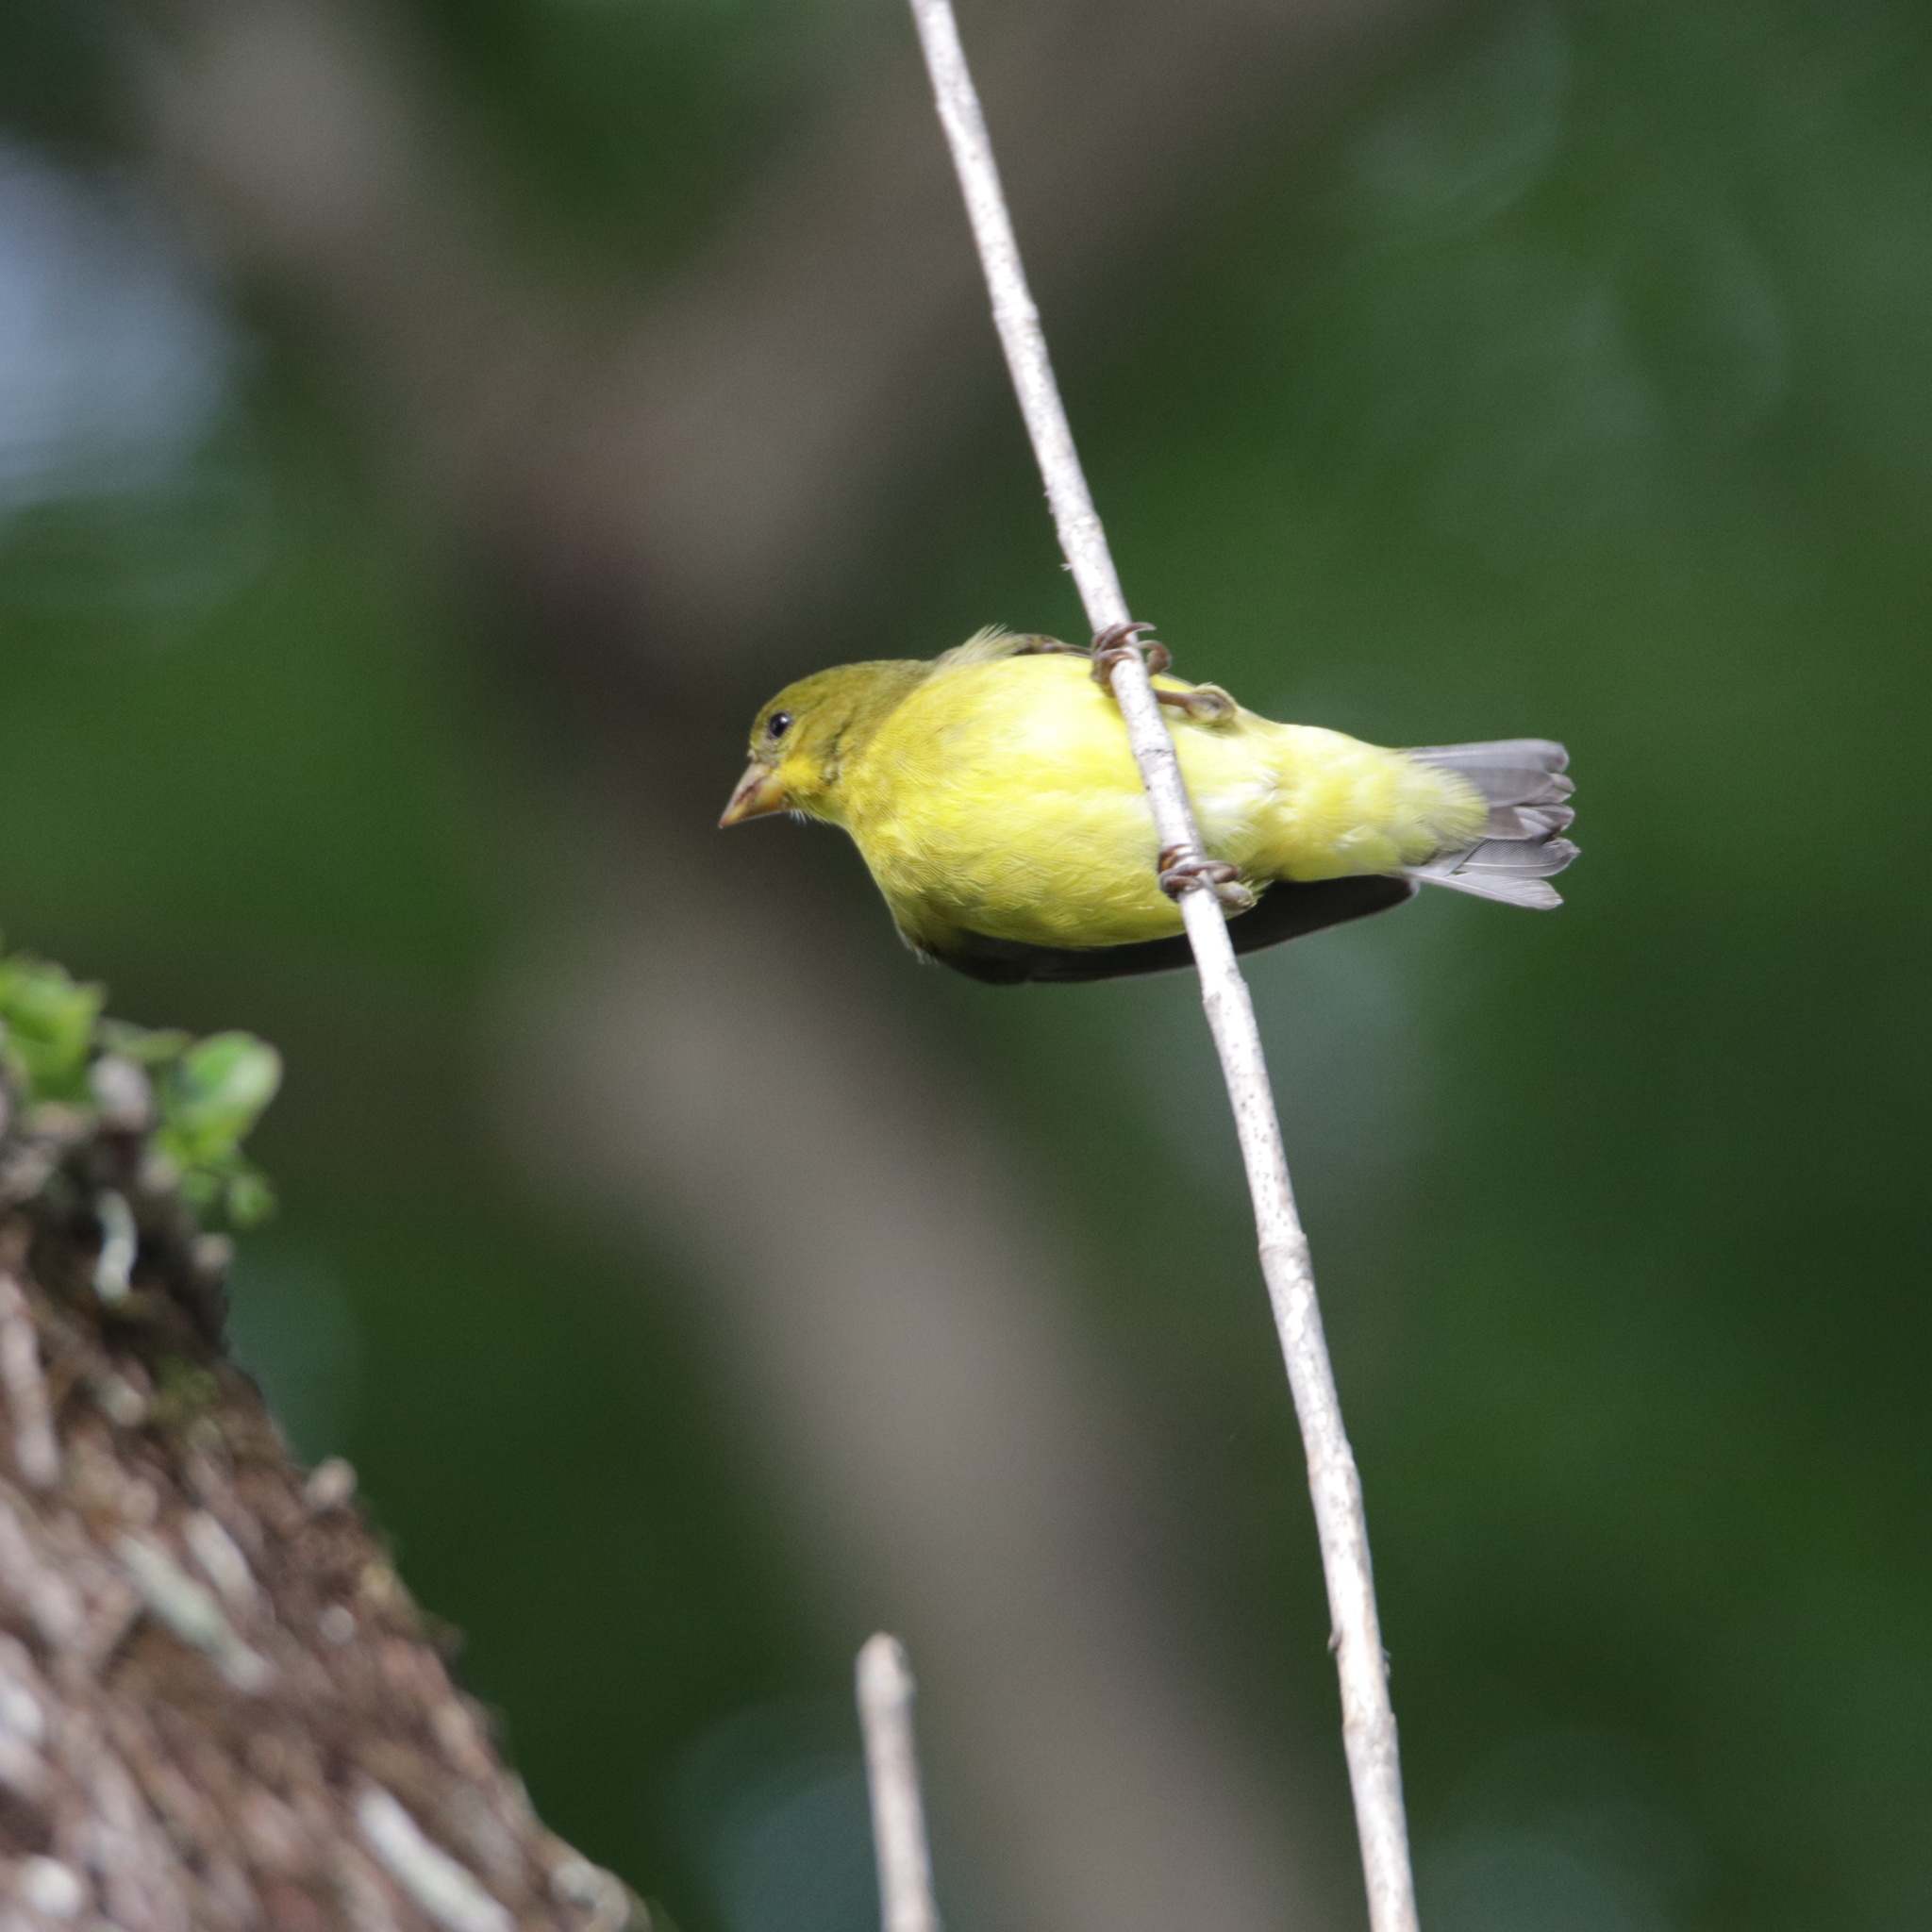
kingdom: Animalia
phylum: Chordata
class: Aves
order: Passeriformes
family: Fringillidae
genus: Spinus
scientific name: Spinus psaltria
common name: Lesser goldfinch
